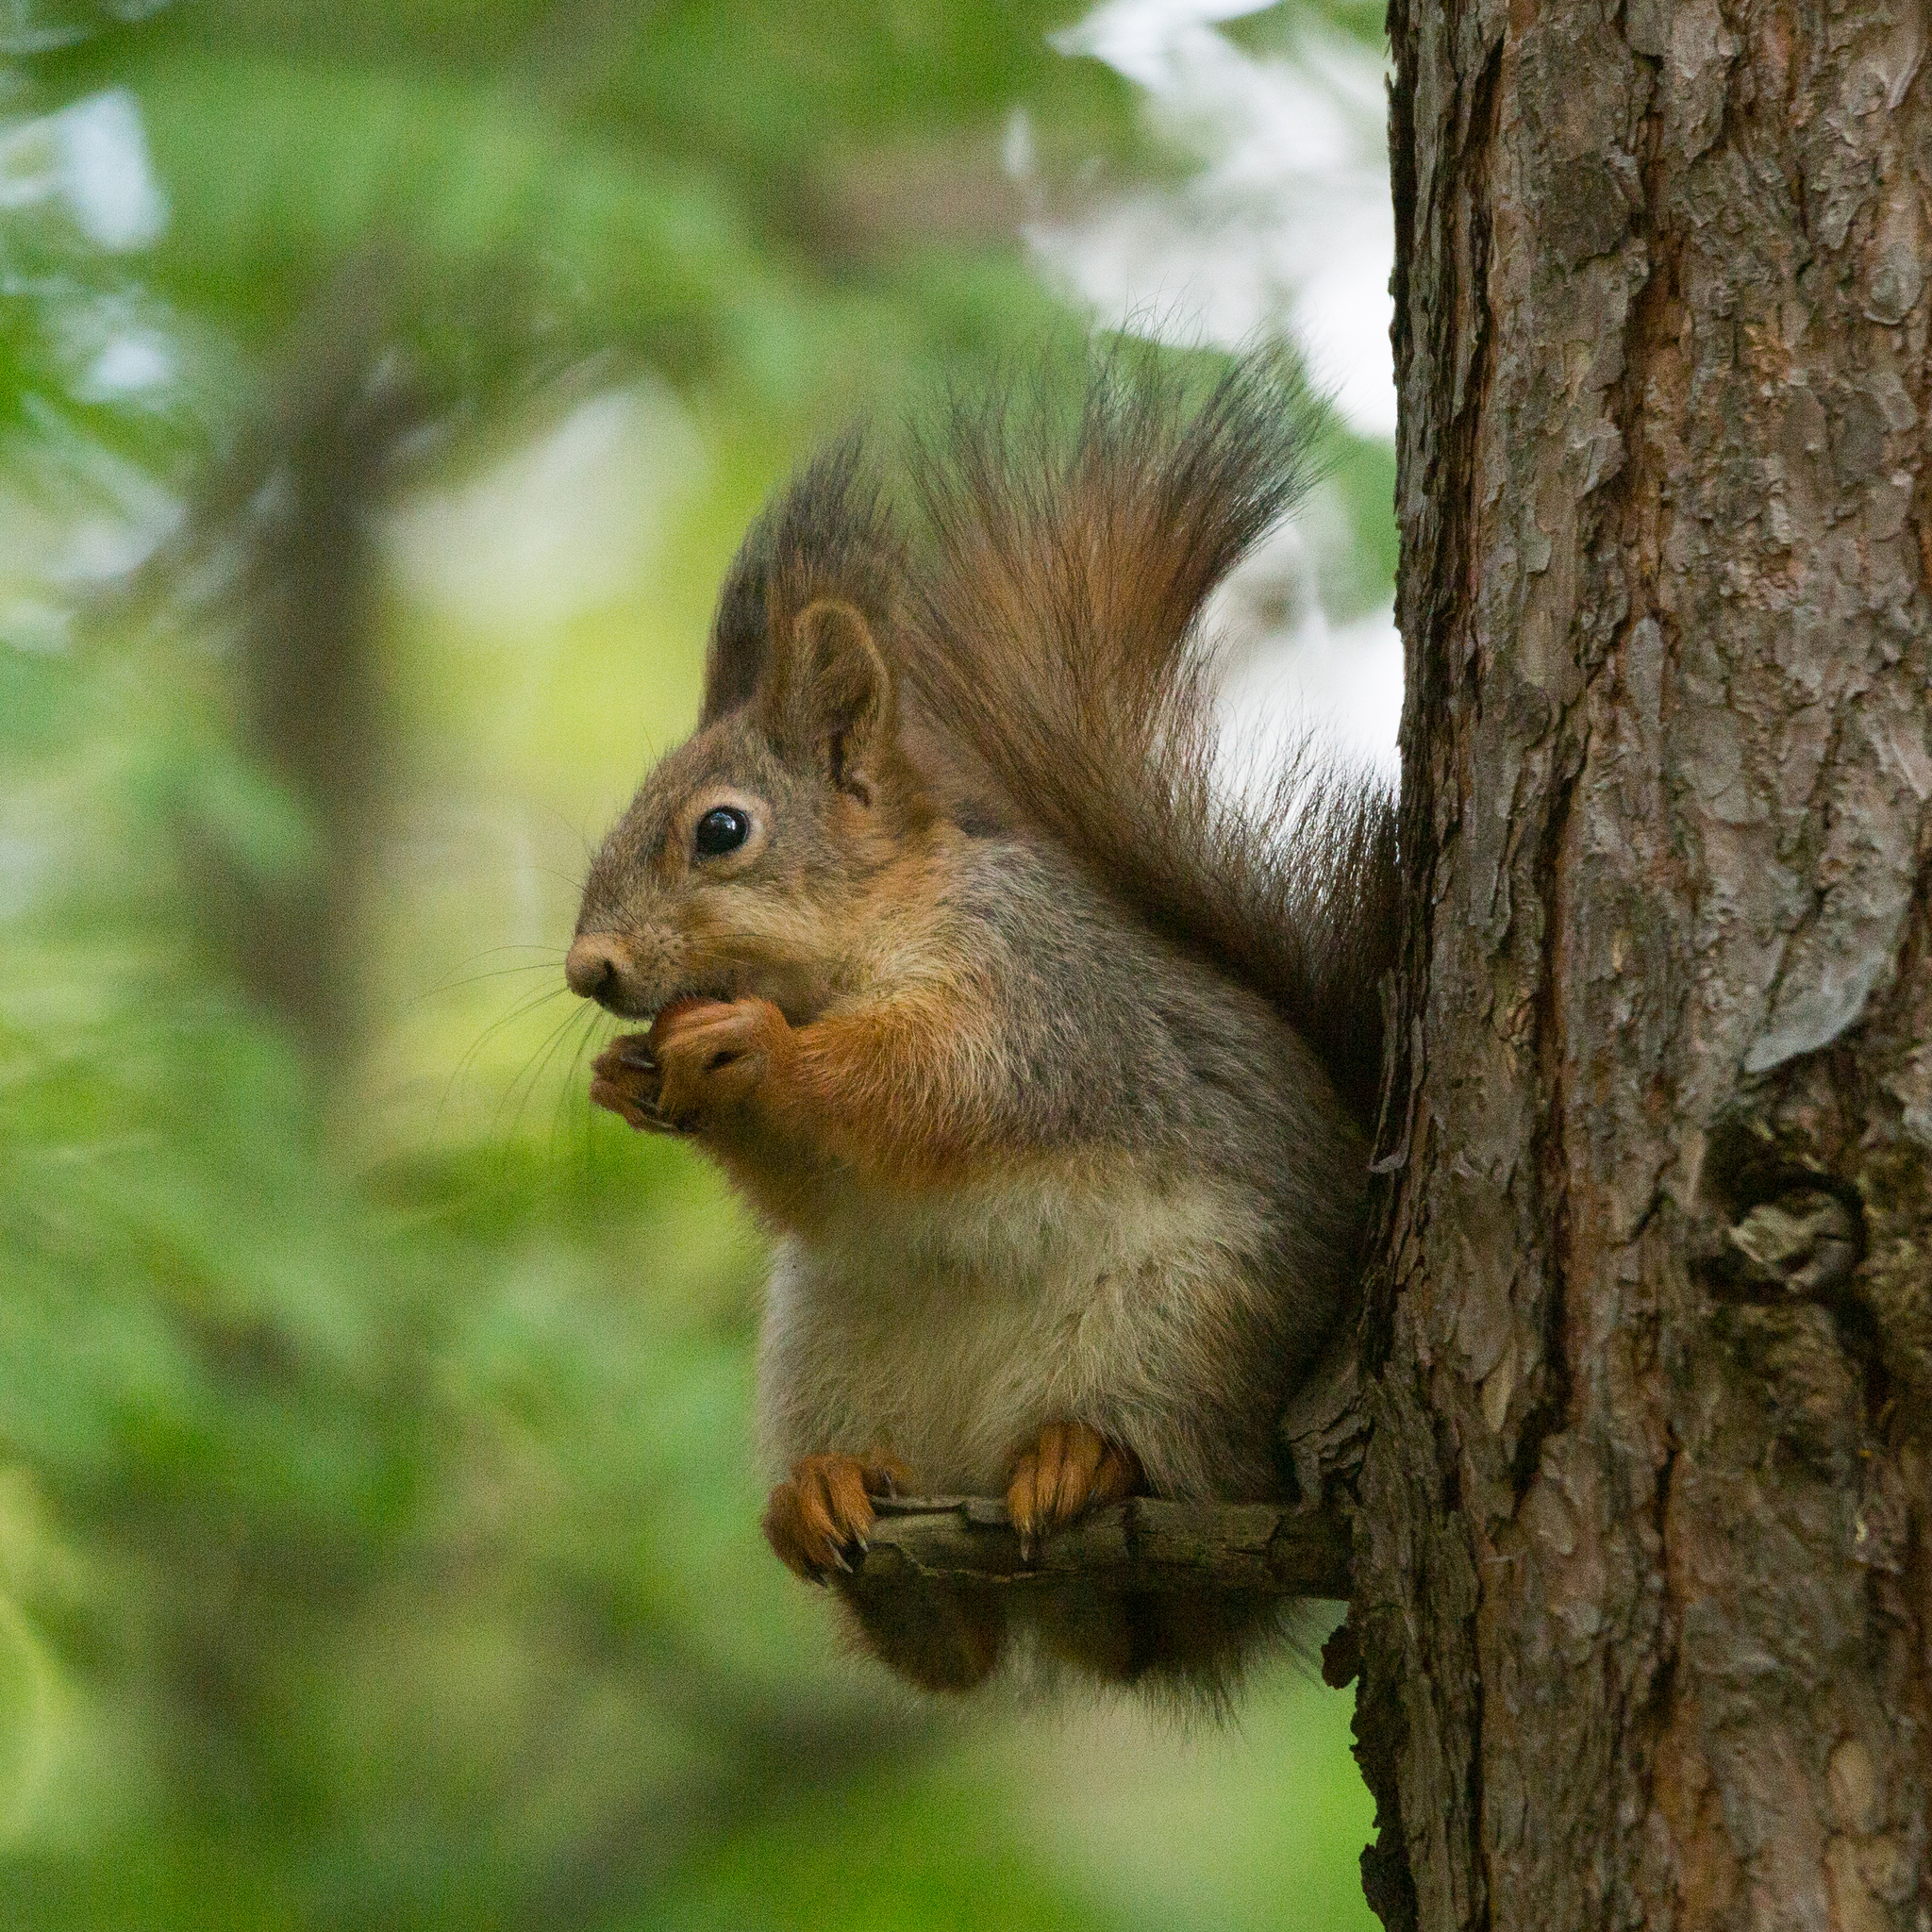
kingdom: Animalia
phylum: Chordata
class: Mammalia
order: Rodentia
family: Sciuridae
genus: Sciurus
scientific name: Sciurus vulgaris
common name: Eurasian red squirrel
